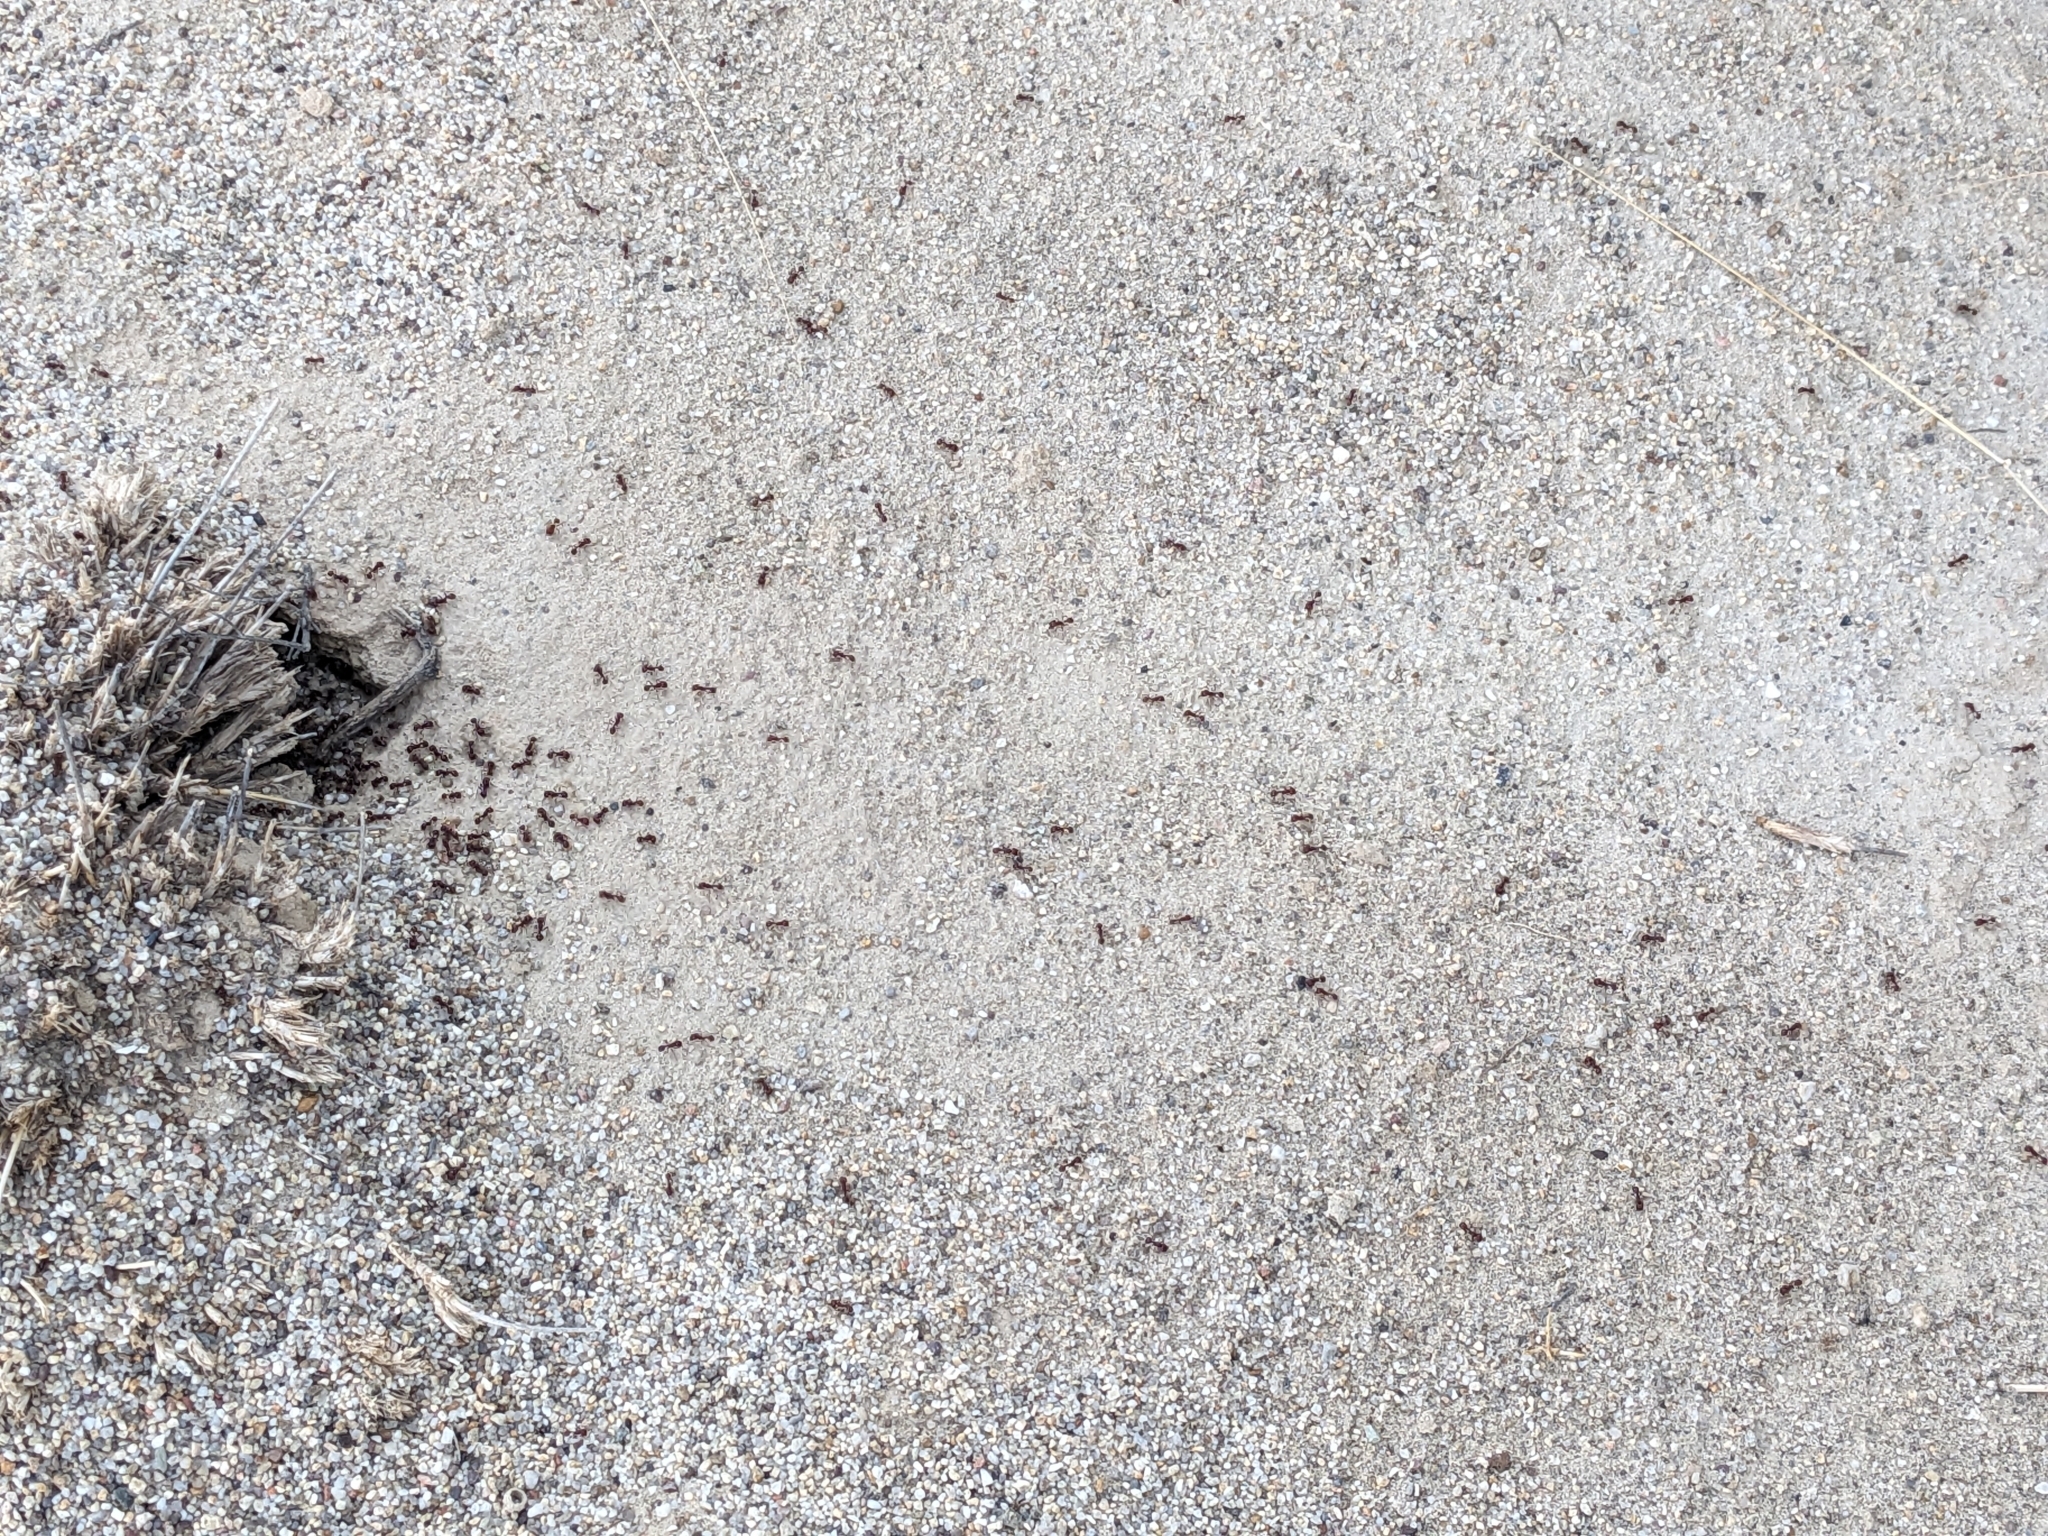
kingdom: Animalia
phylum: Arthropoda
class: Insecta
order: Hymenoptera
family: Formicidae
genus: Pogonomyrmex
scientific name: Pogonomyrmex barbatus
